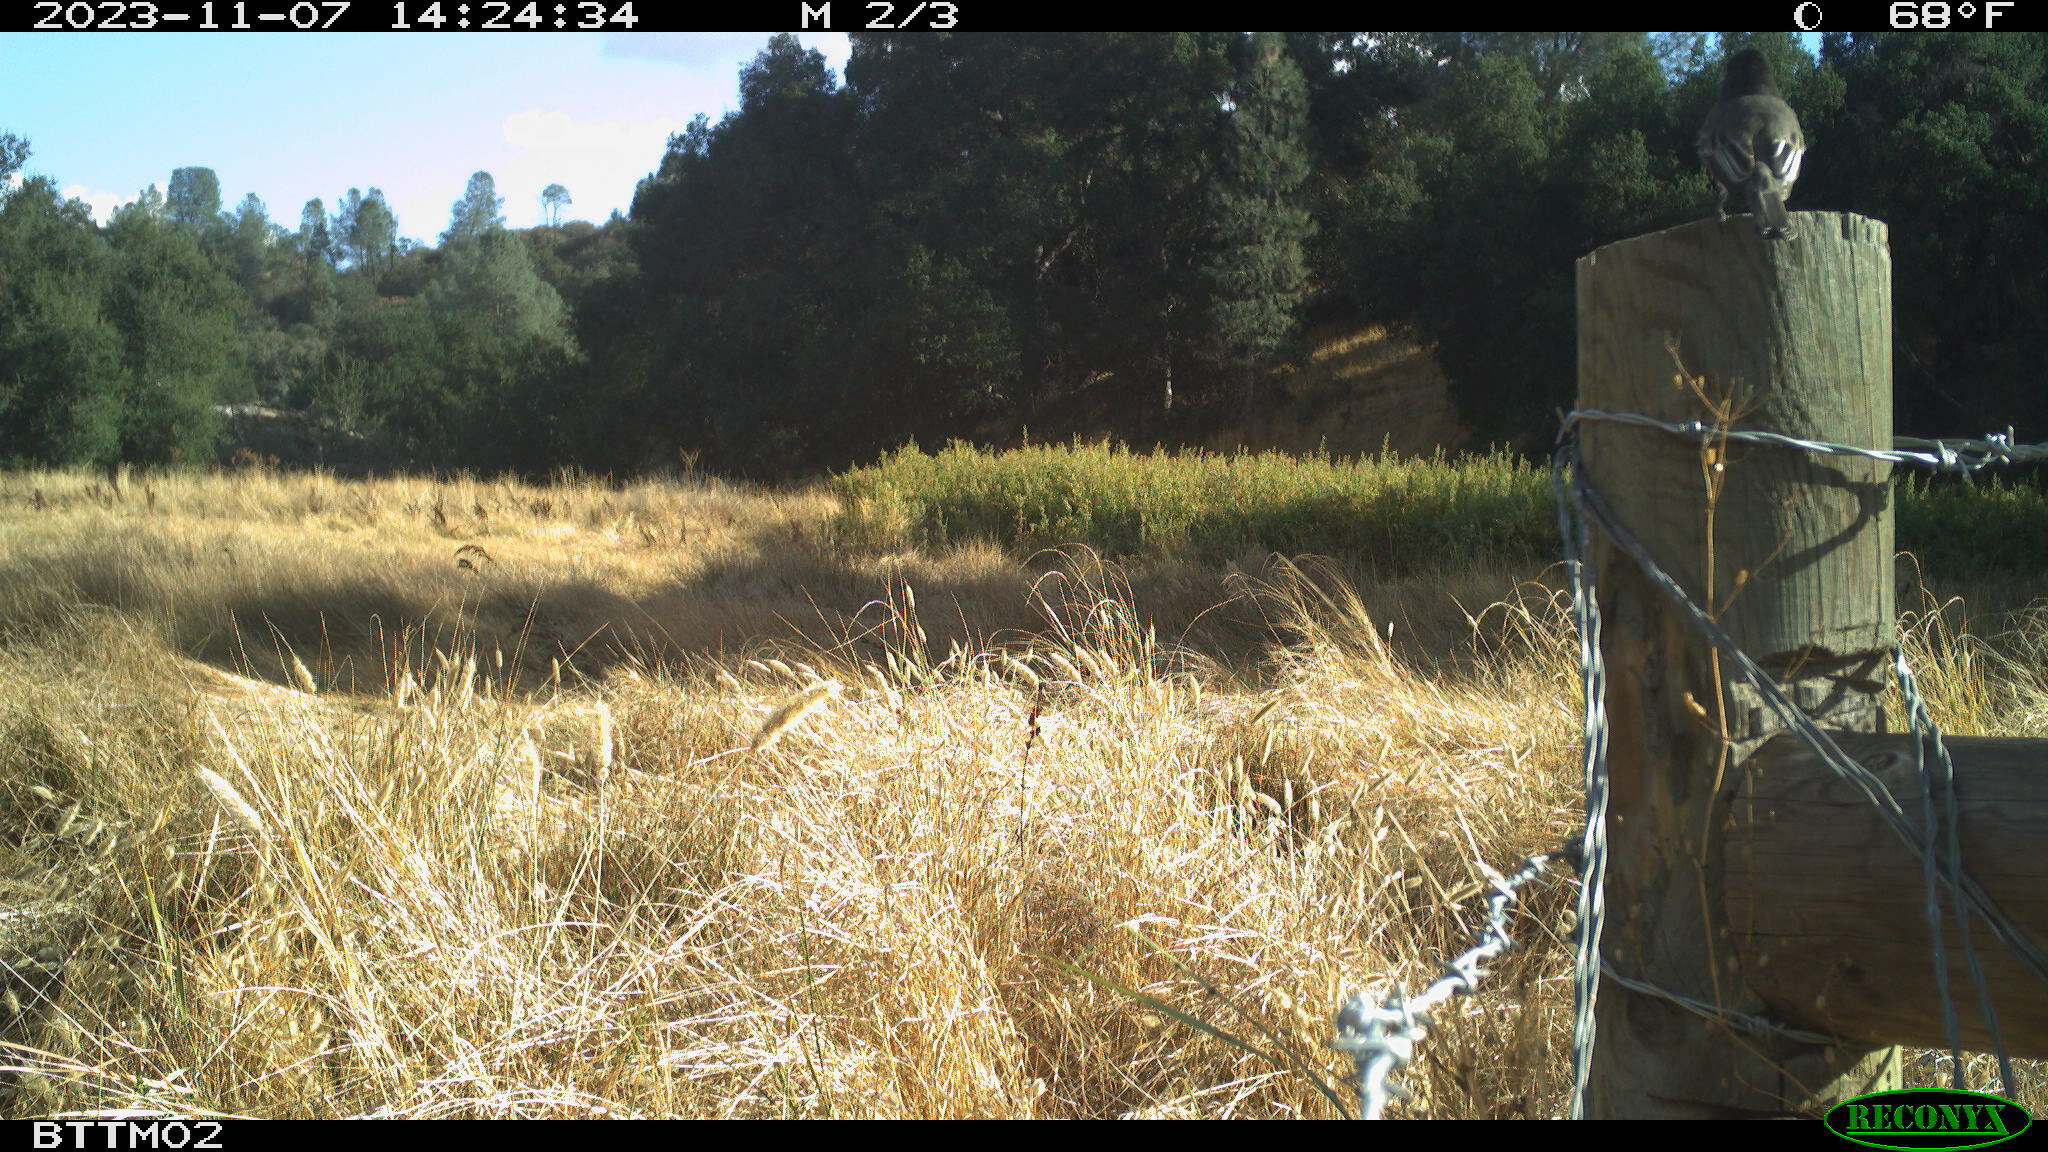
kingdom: Animalia
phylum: Chordata
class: Aves
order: Passeriformes
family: Tyrannidae
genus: Sayornis
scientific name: Sayornis nigricans
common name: Black phoebe
